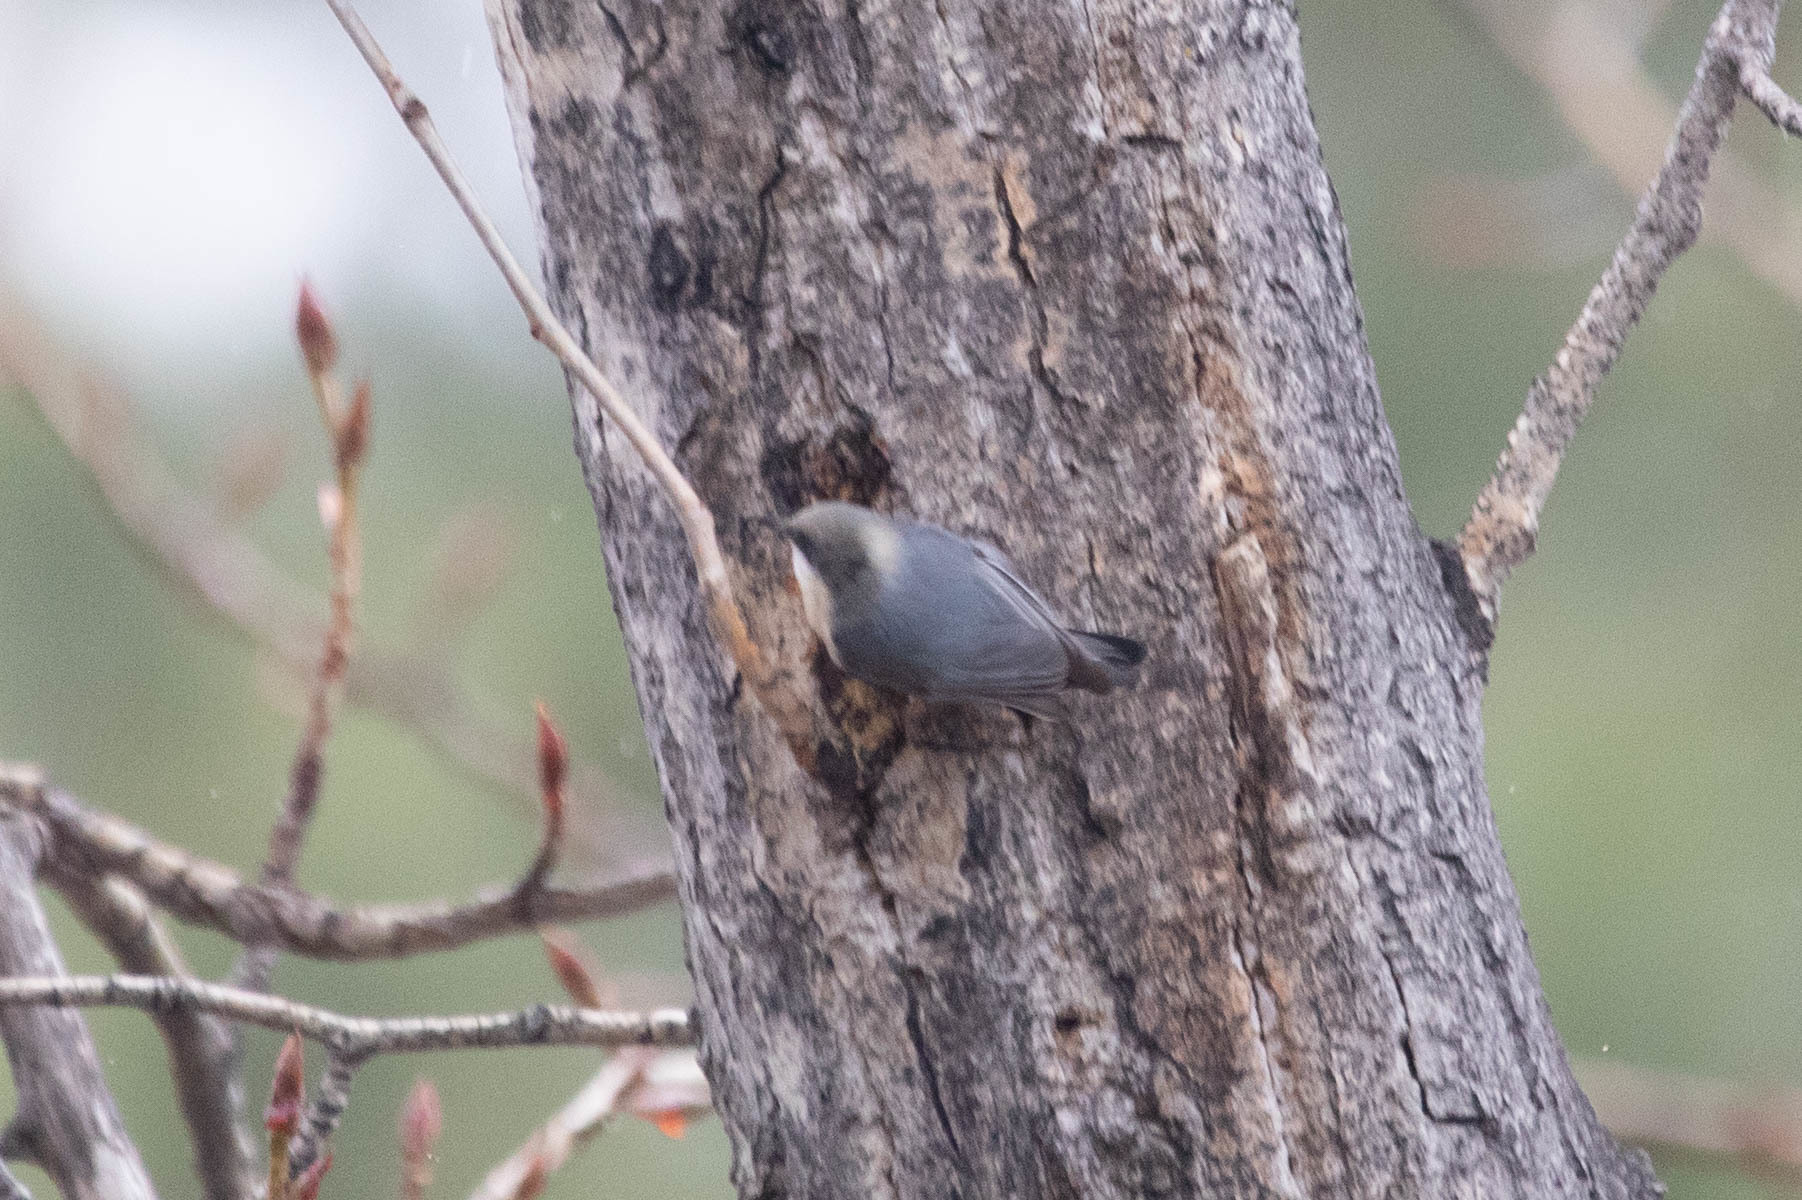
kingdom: Animalia
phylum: Chordata
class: Aves
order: Passeriformes
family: Sittidae
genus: Sitta
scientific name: Sitta pygmaea
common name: Pygmy nuthatch
